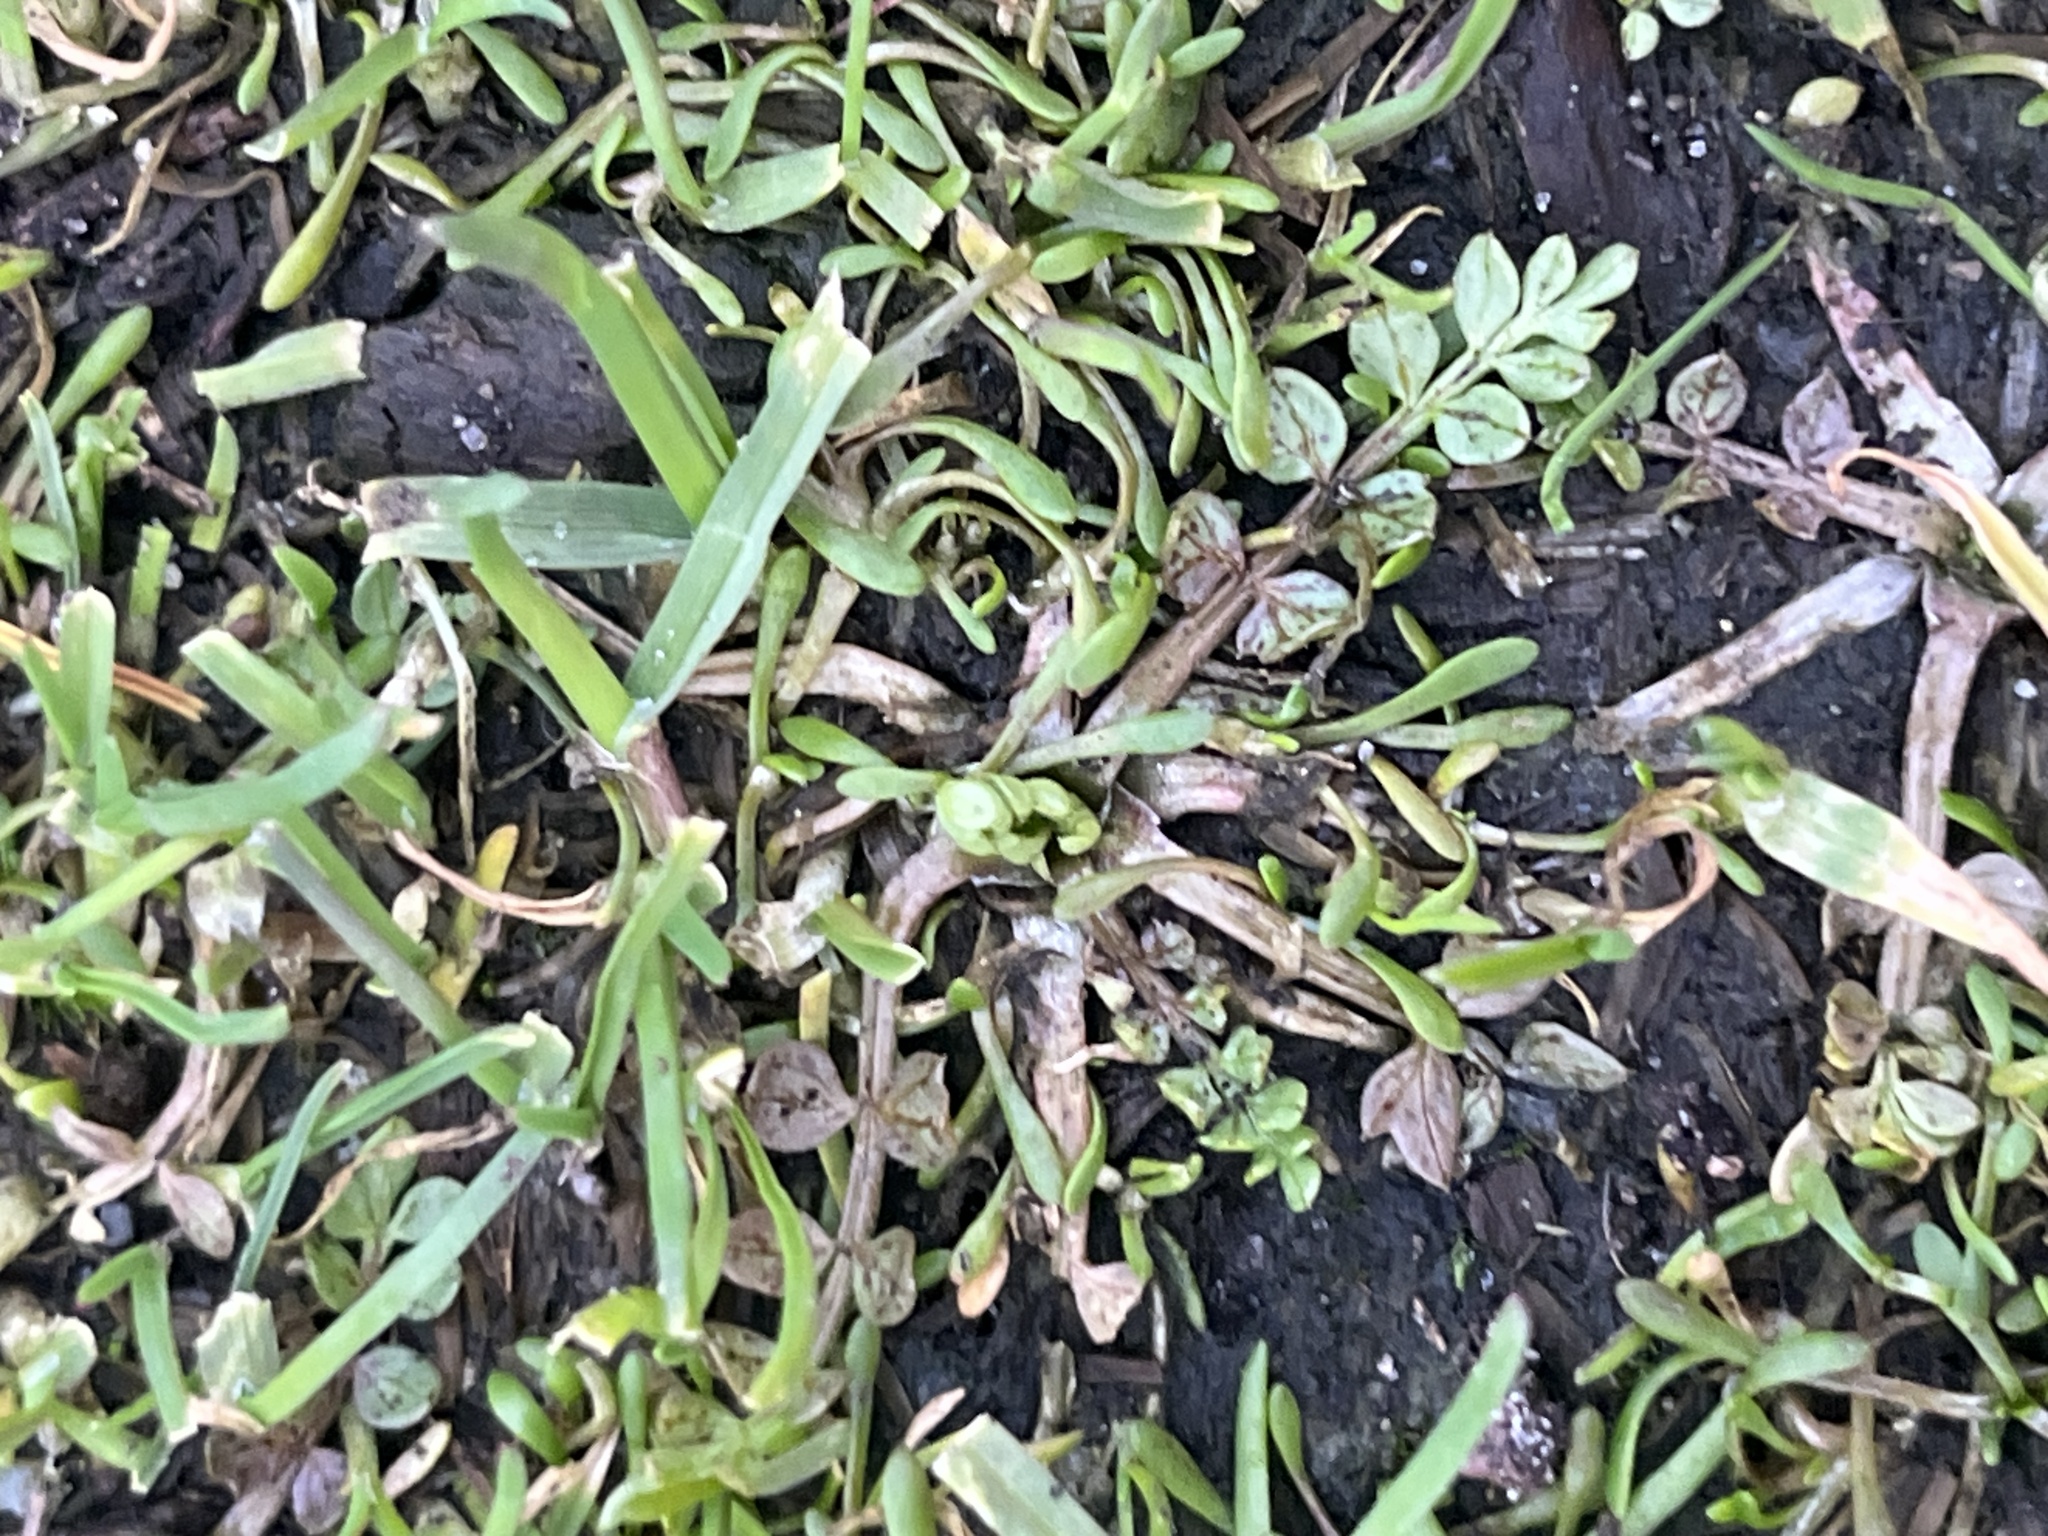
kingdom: Plantae
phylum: Tracheophyta
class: Magnoliopsida
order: Brassicales
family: Limnanthaceae
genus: Limnanthes
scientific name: Limnanthes macounii
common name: Macoun's meadowfoam
